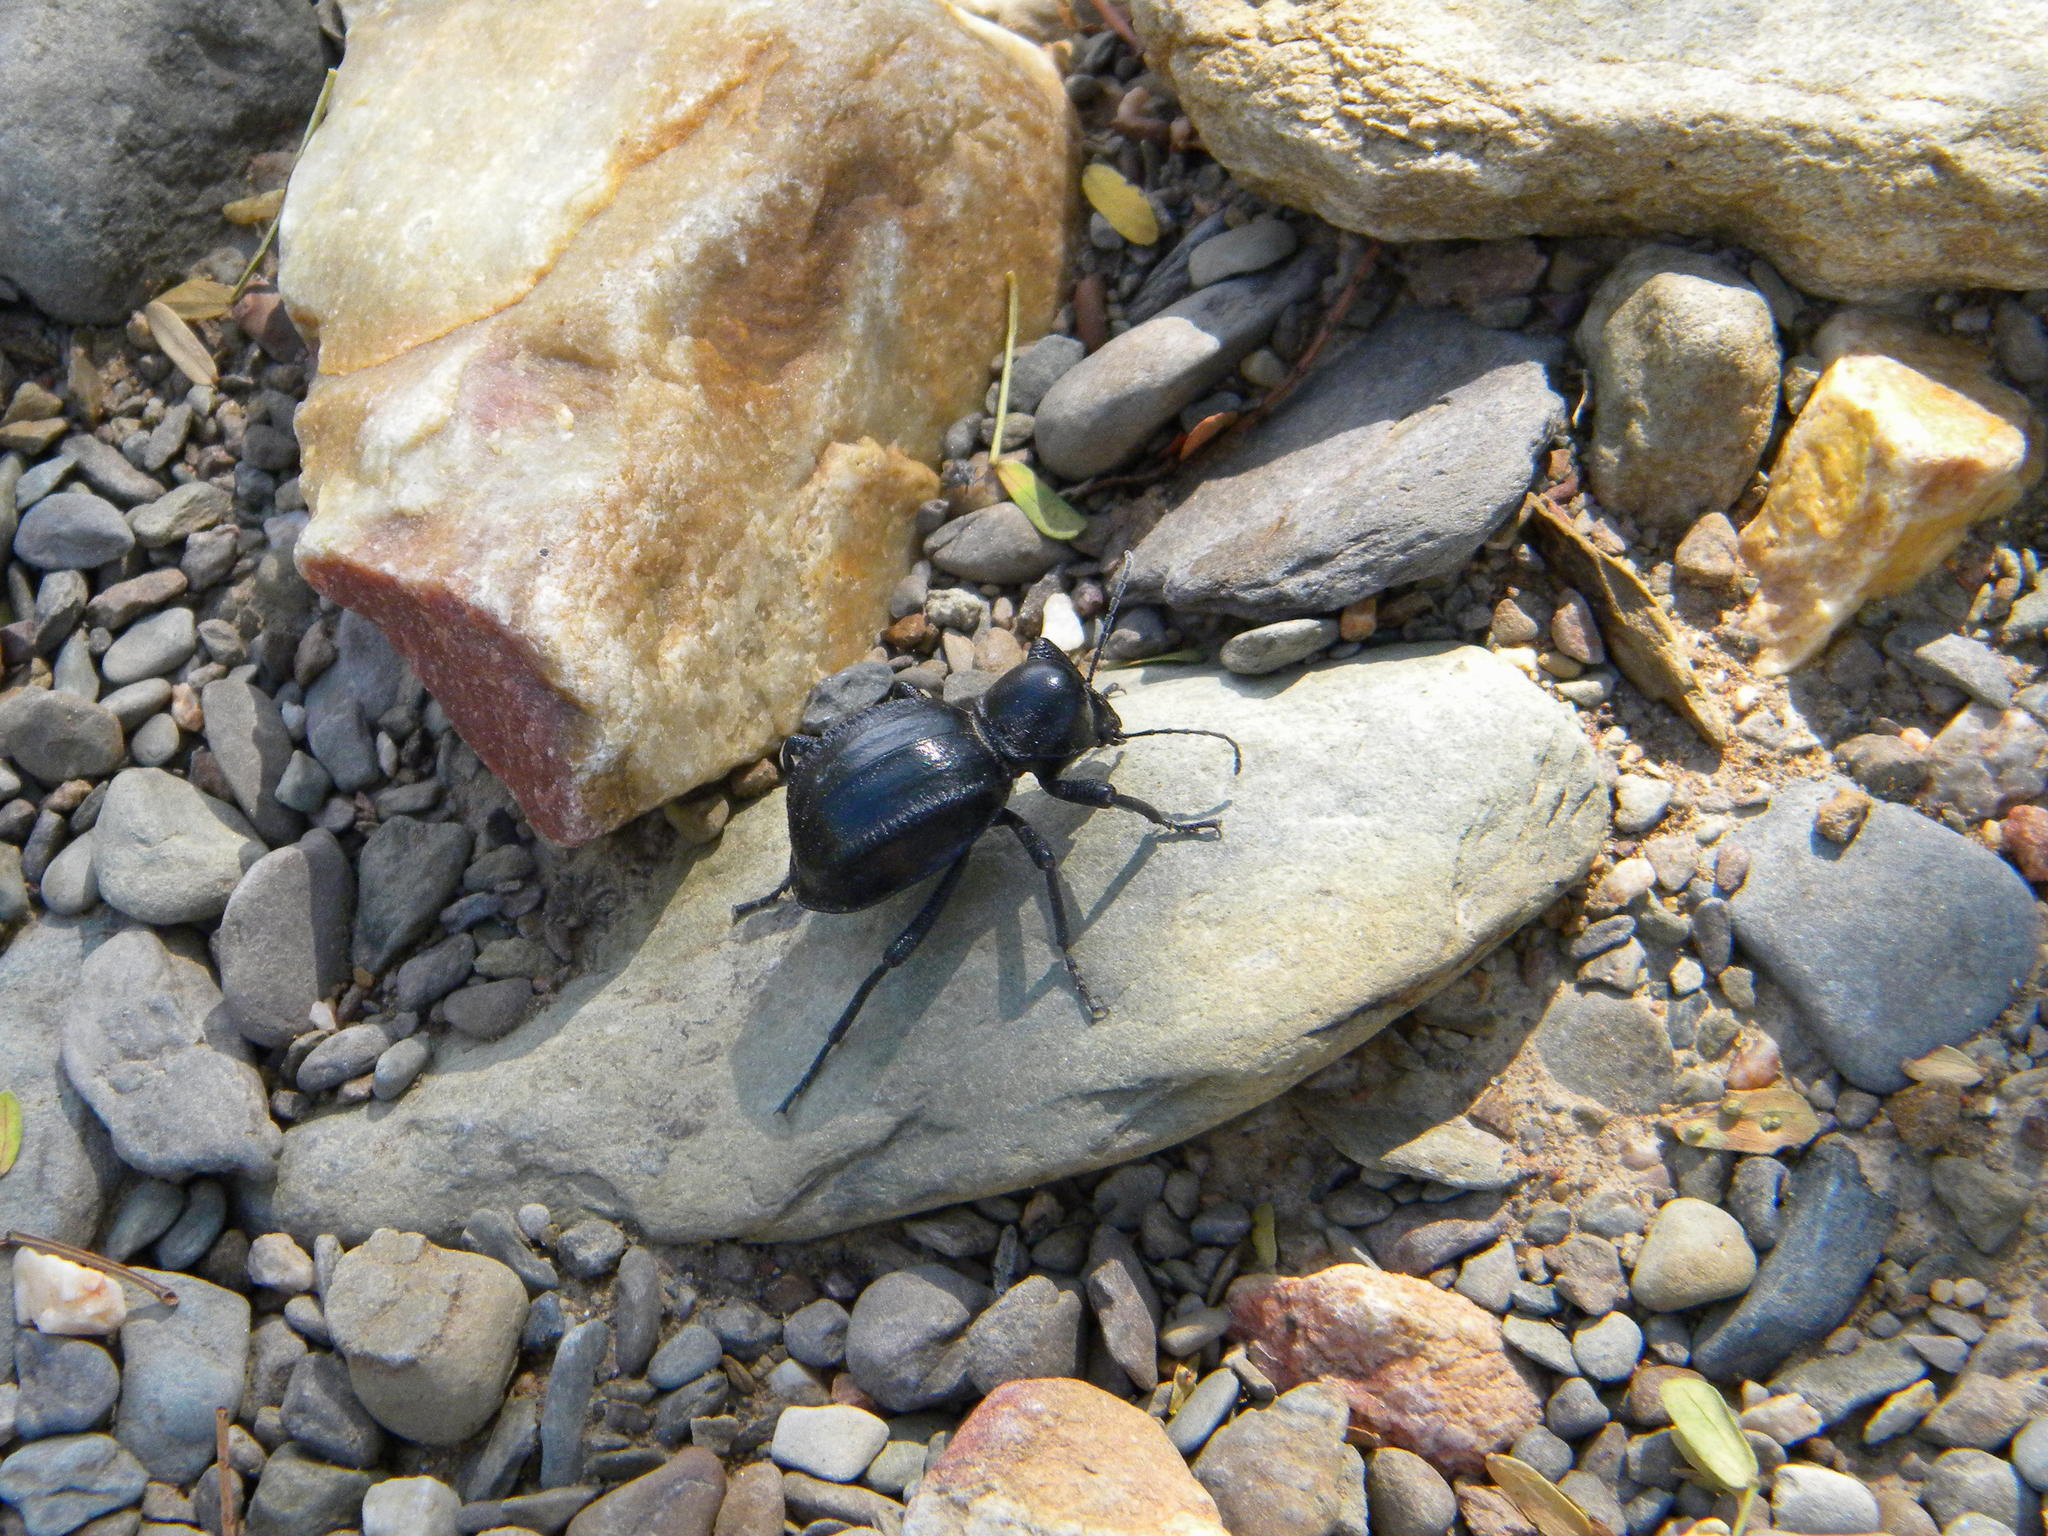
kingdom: Animalia
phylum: Arthropoda
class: Insecta
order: Coleoptera
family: Tenebrionidae
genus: Moluris
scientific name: Moluris gibba
